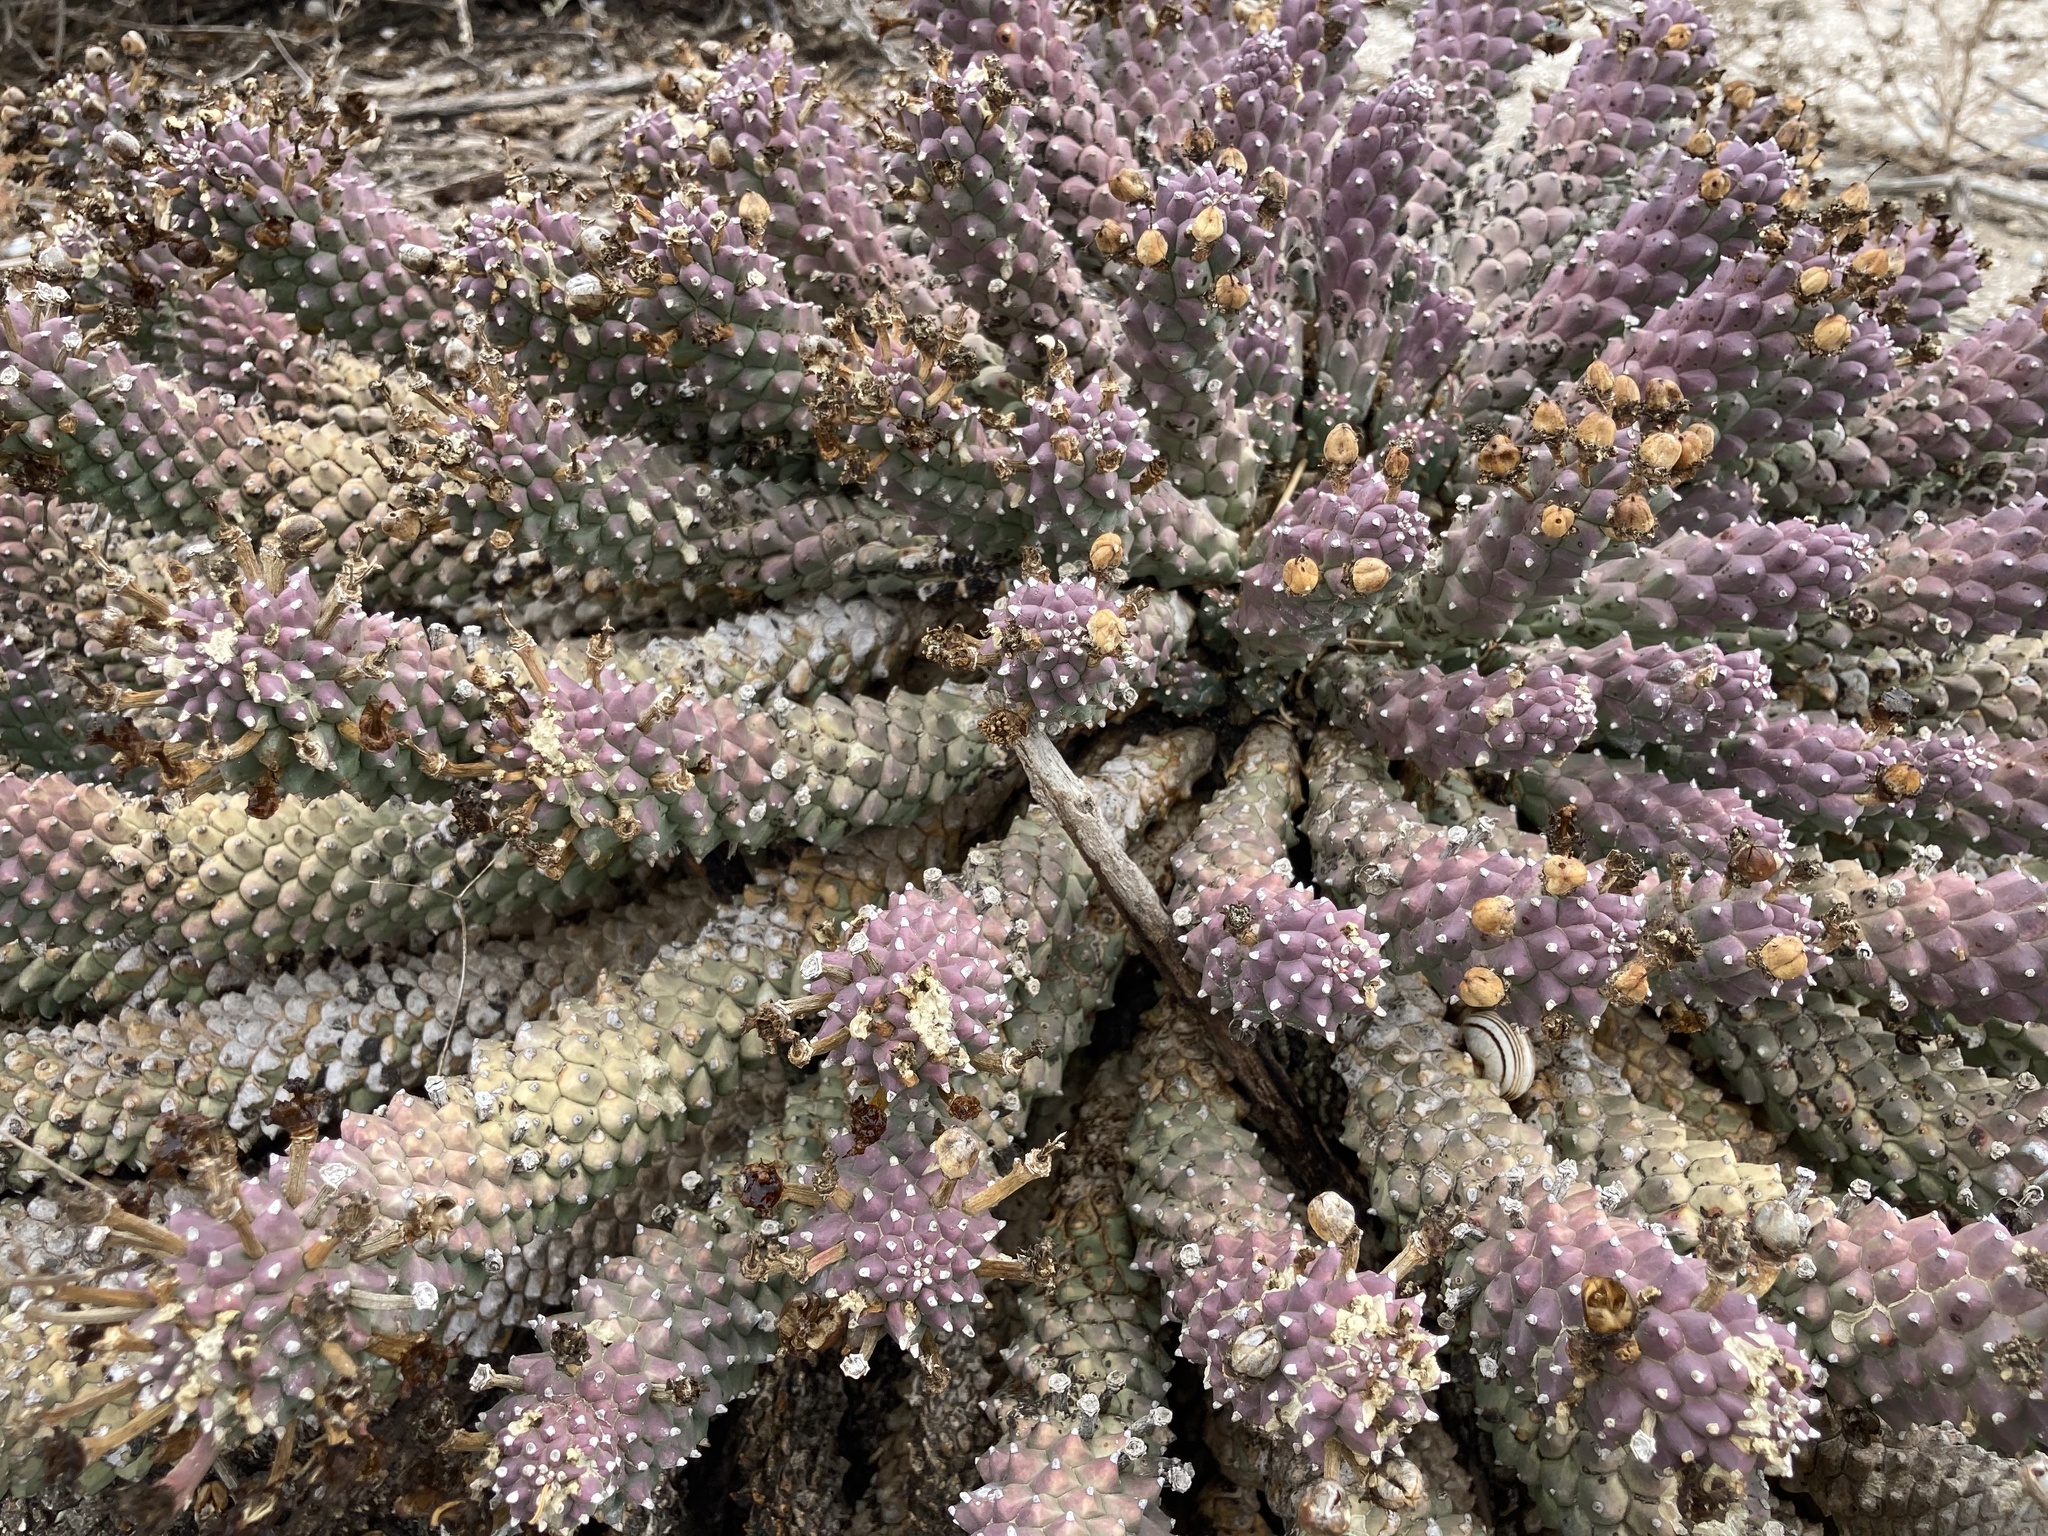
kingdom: Plantae
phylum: Tracheophyta
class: Magnoliopsida
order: Malpighiales
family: Euphorbiaceae
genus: Euphorbia
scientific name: Euphorbia caput-medusae
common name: Medusa's-head
